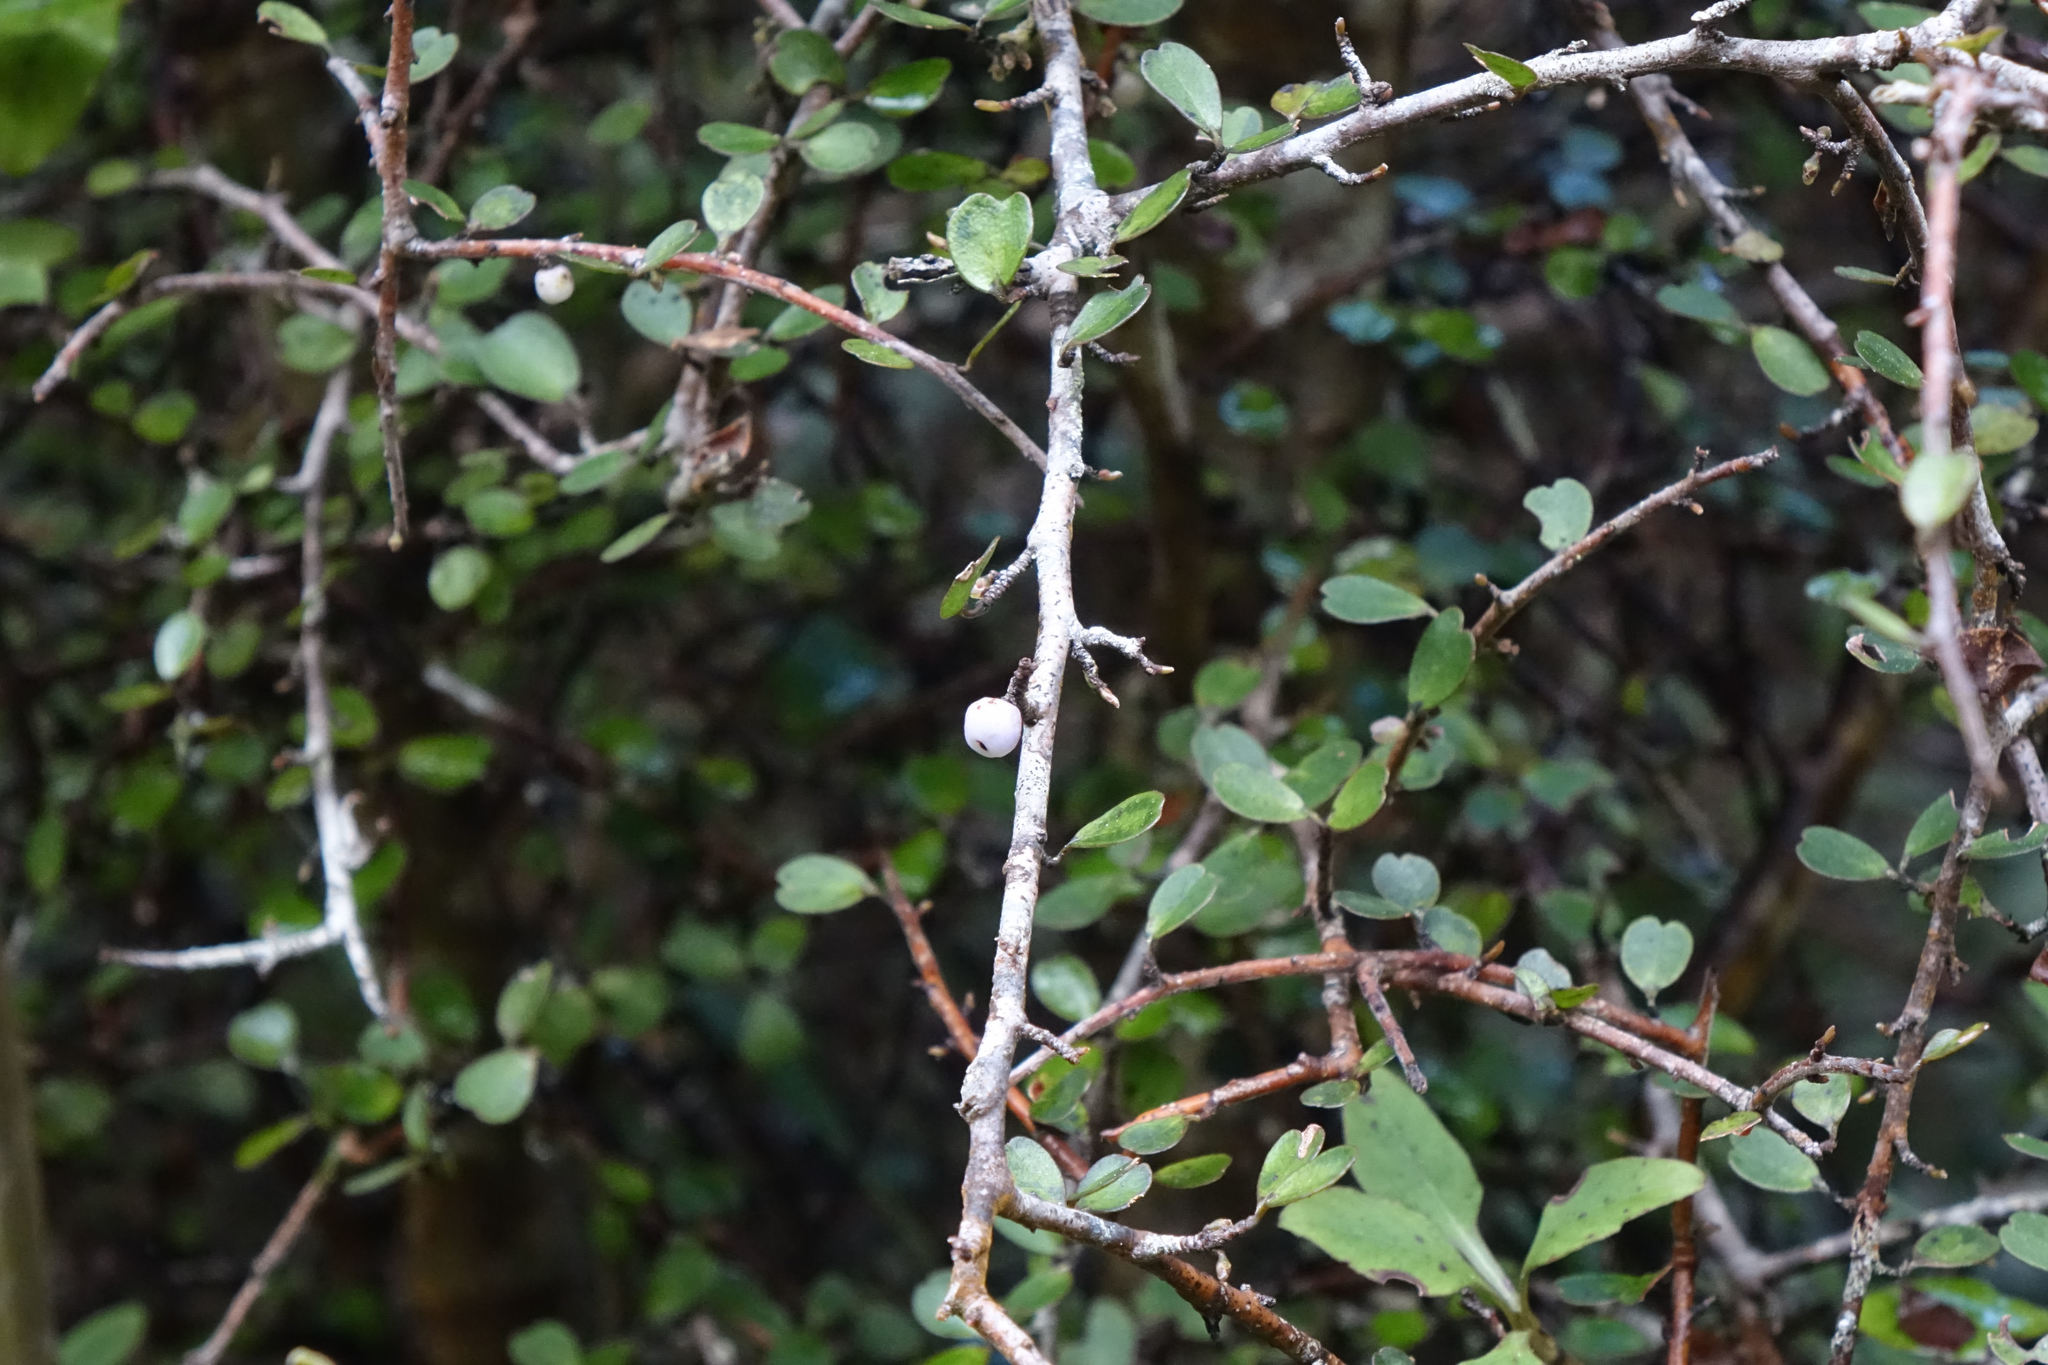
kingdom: Plantae
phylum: Tracheophyta
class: Magnoliopsida
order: Ericales
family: Primulaceae
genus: Myrsine
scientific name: Myrsine divaricata
